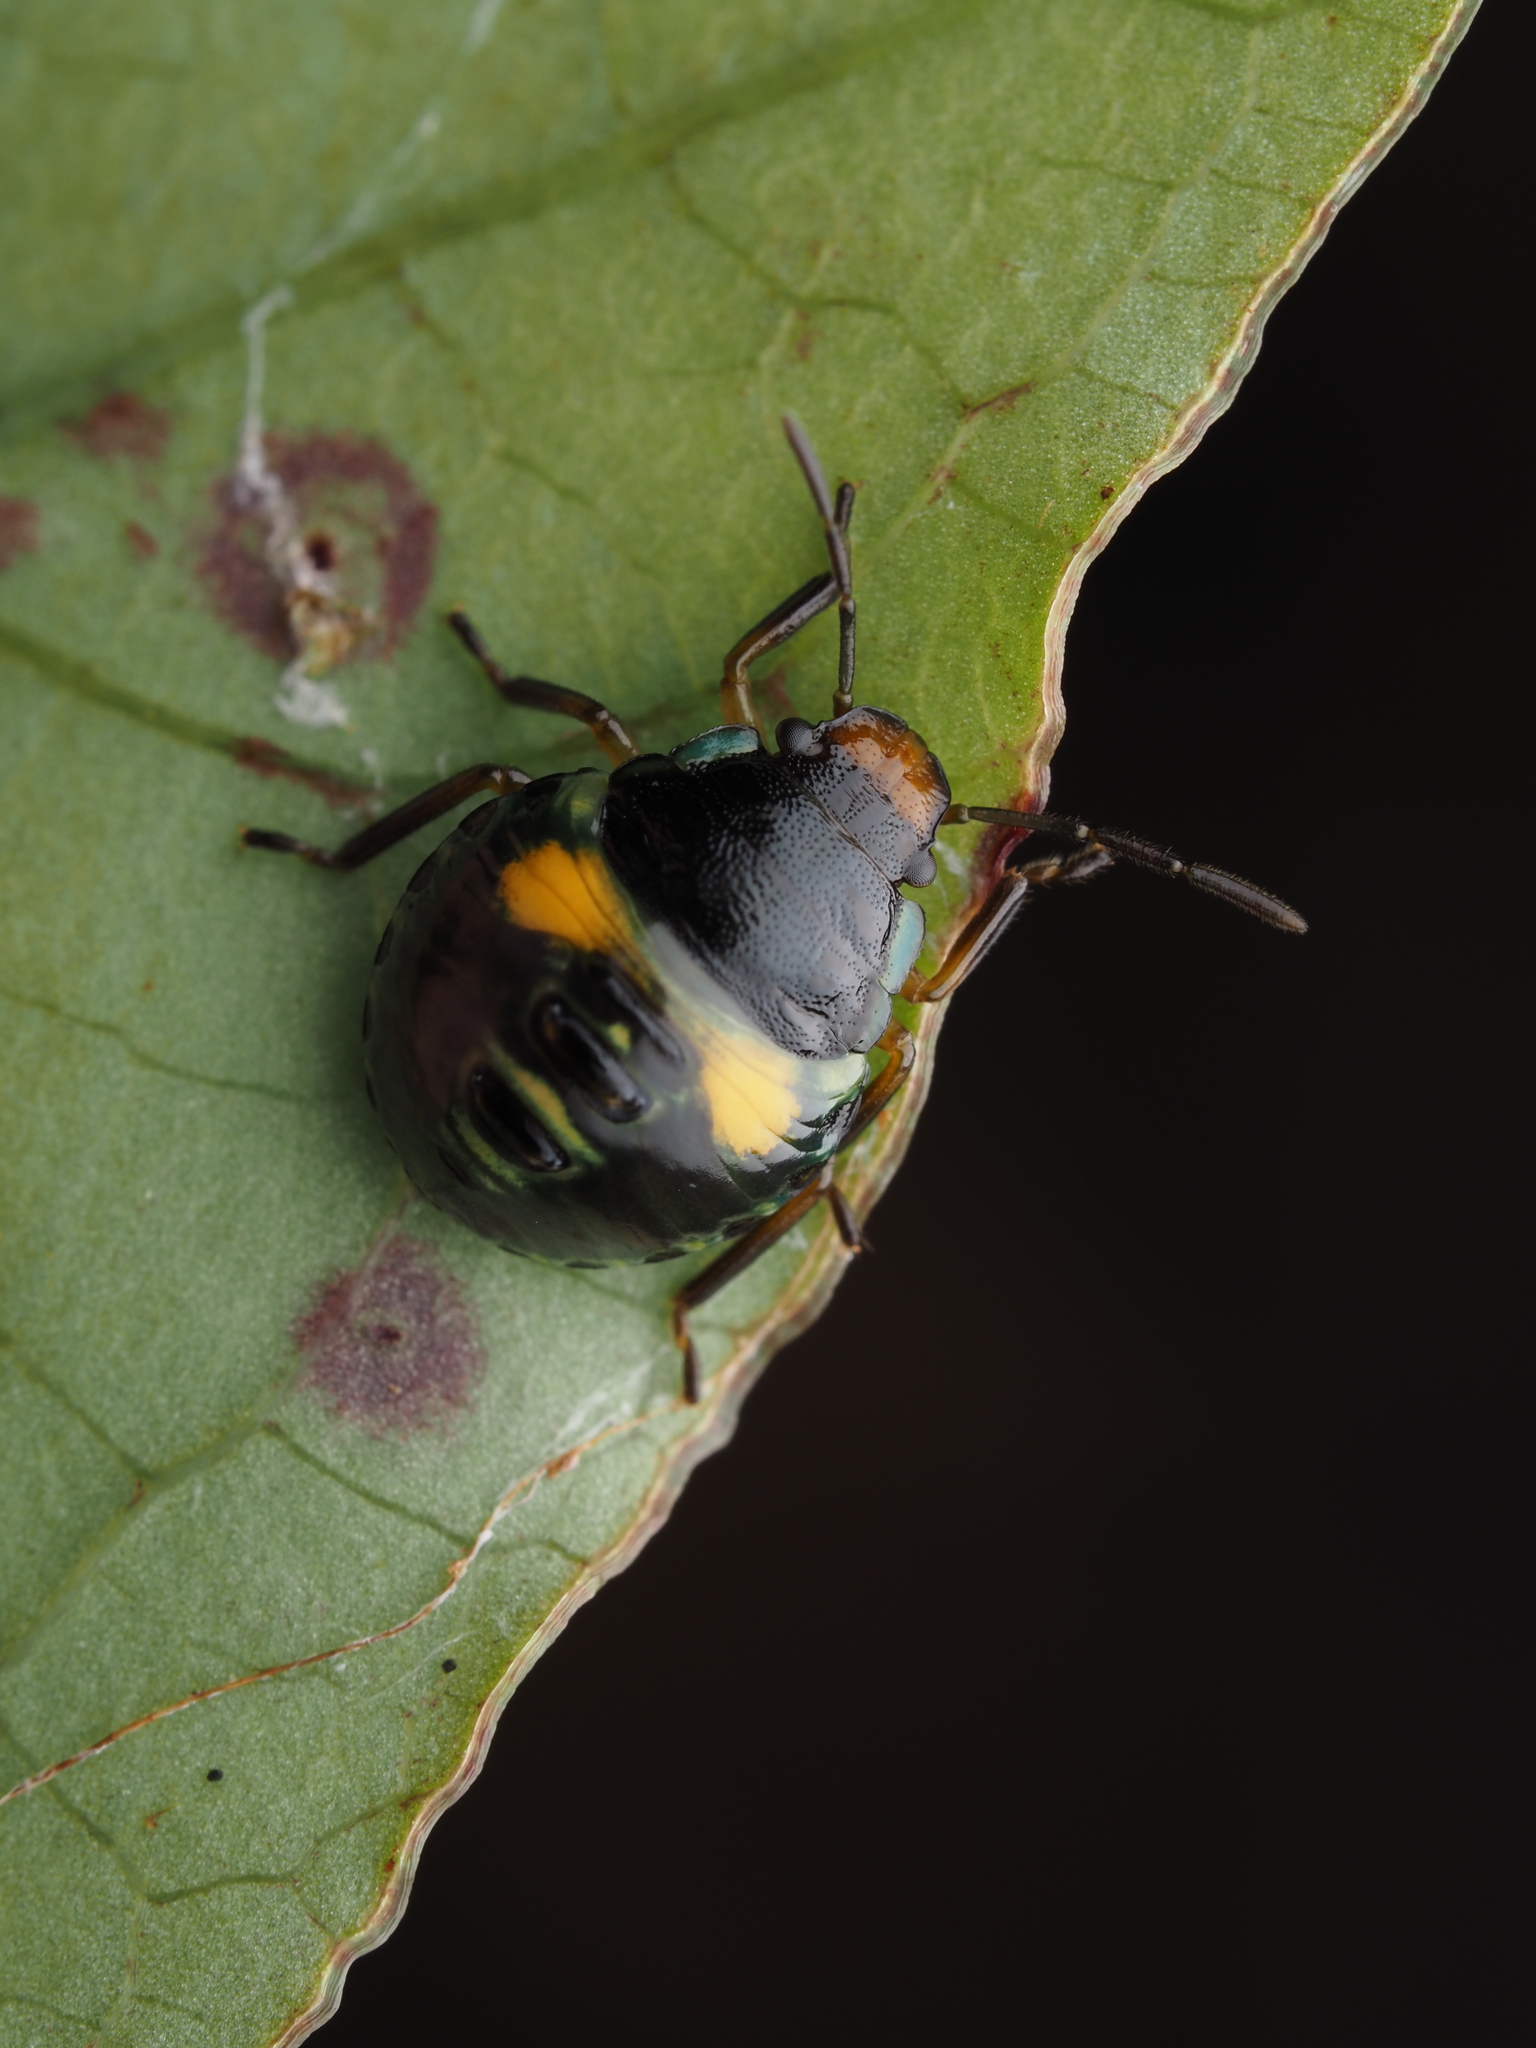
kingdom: Animalia
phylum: Arthropoda
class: Insecta
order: Hemiptera
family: Pentatomidae
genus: Glaucias
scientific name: Glaucias amyota
